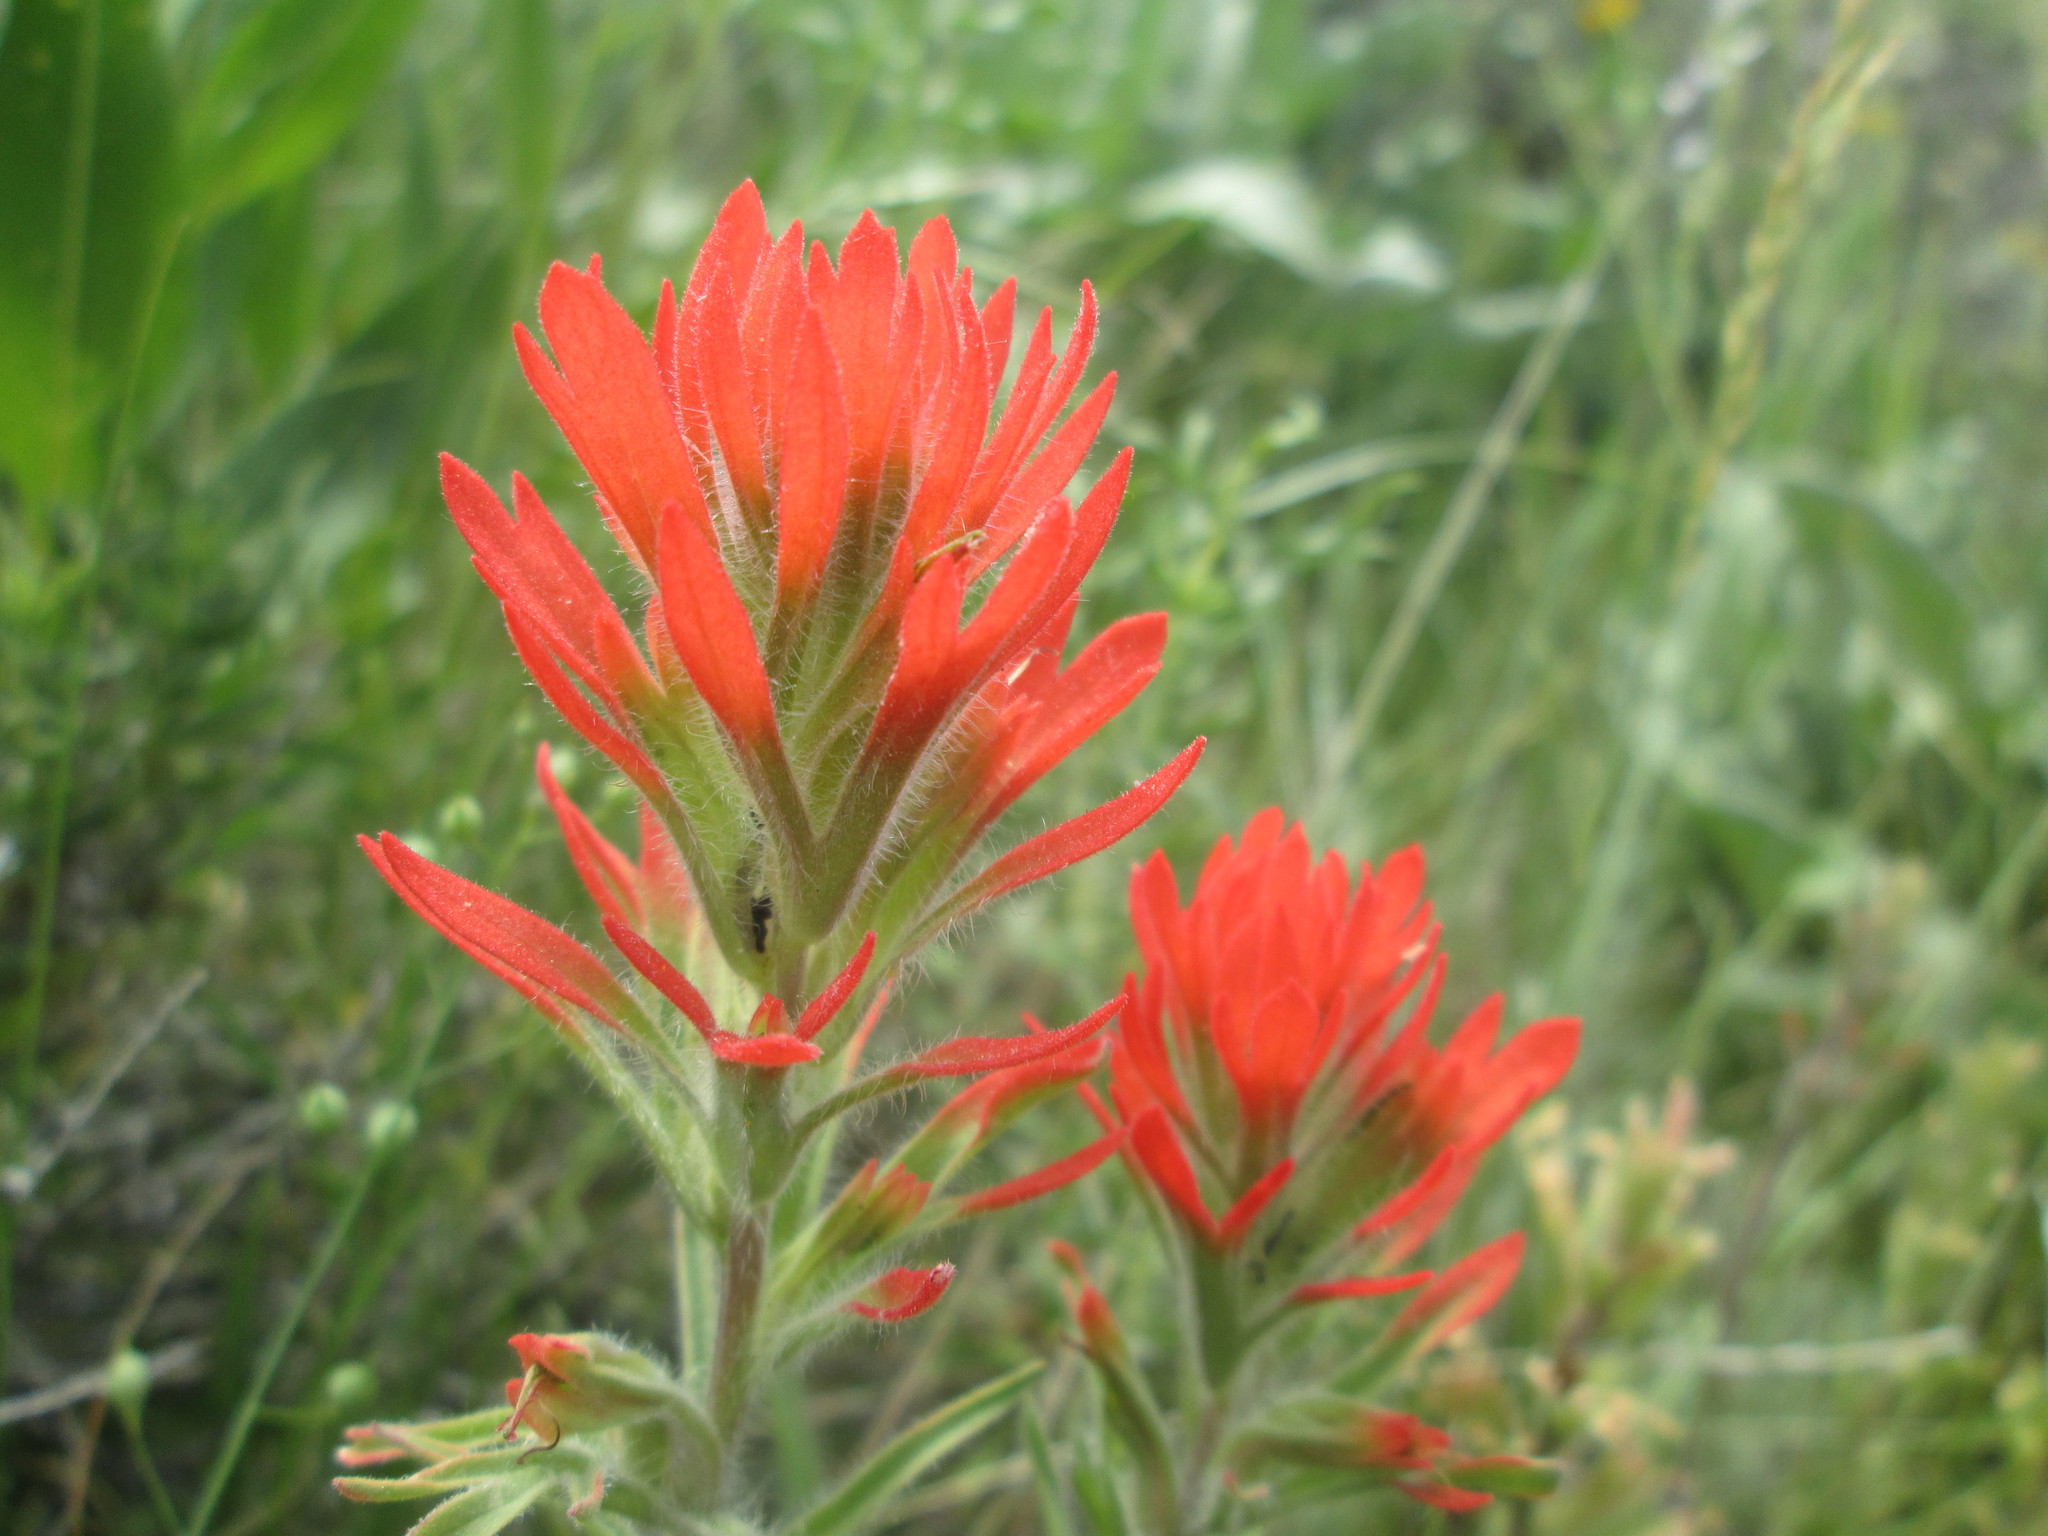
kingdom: Plantae
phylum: Tracheophyta
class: Magnoliopsida
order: Lamiales
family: Orobanchaceae
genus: Castilleja
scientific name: Castilleja chromosa
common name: Desert paintbrush
